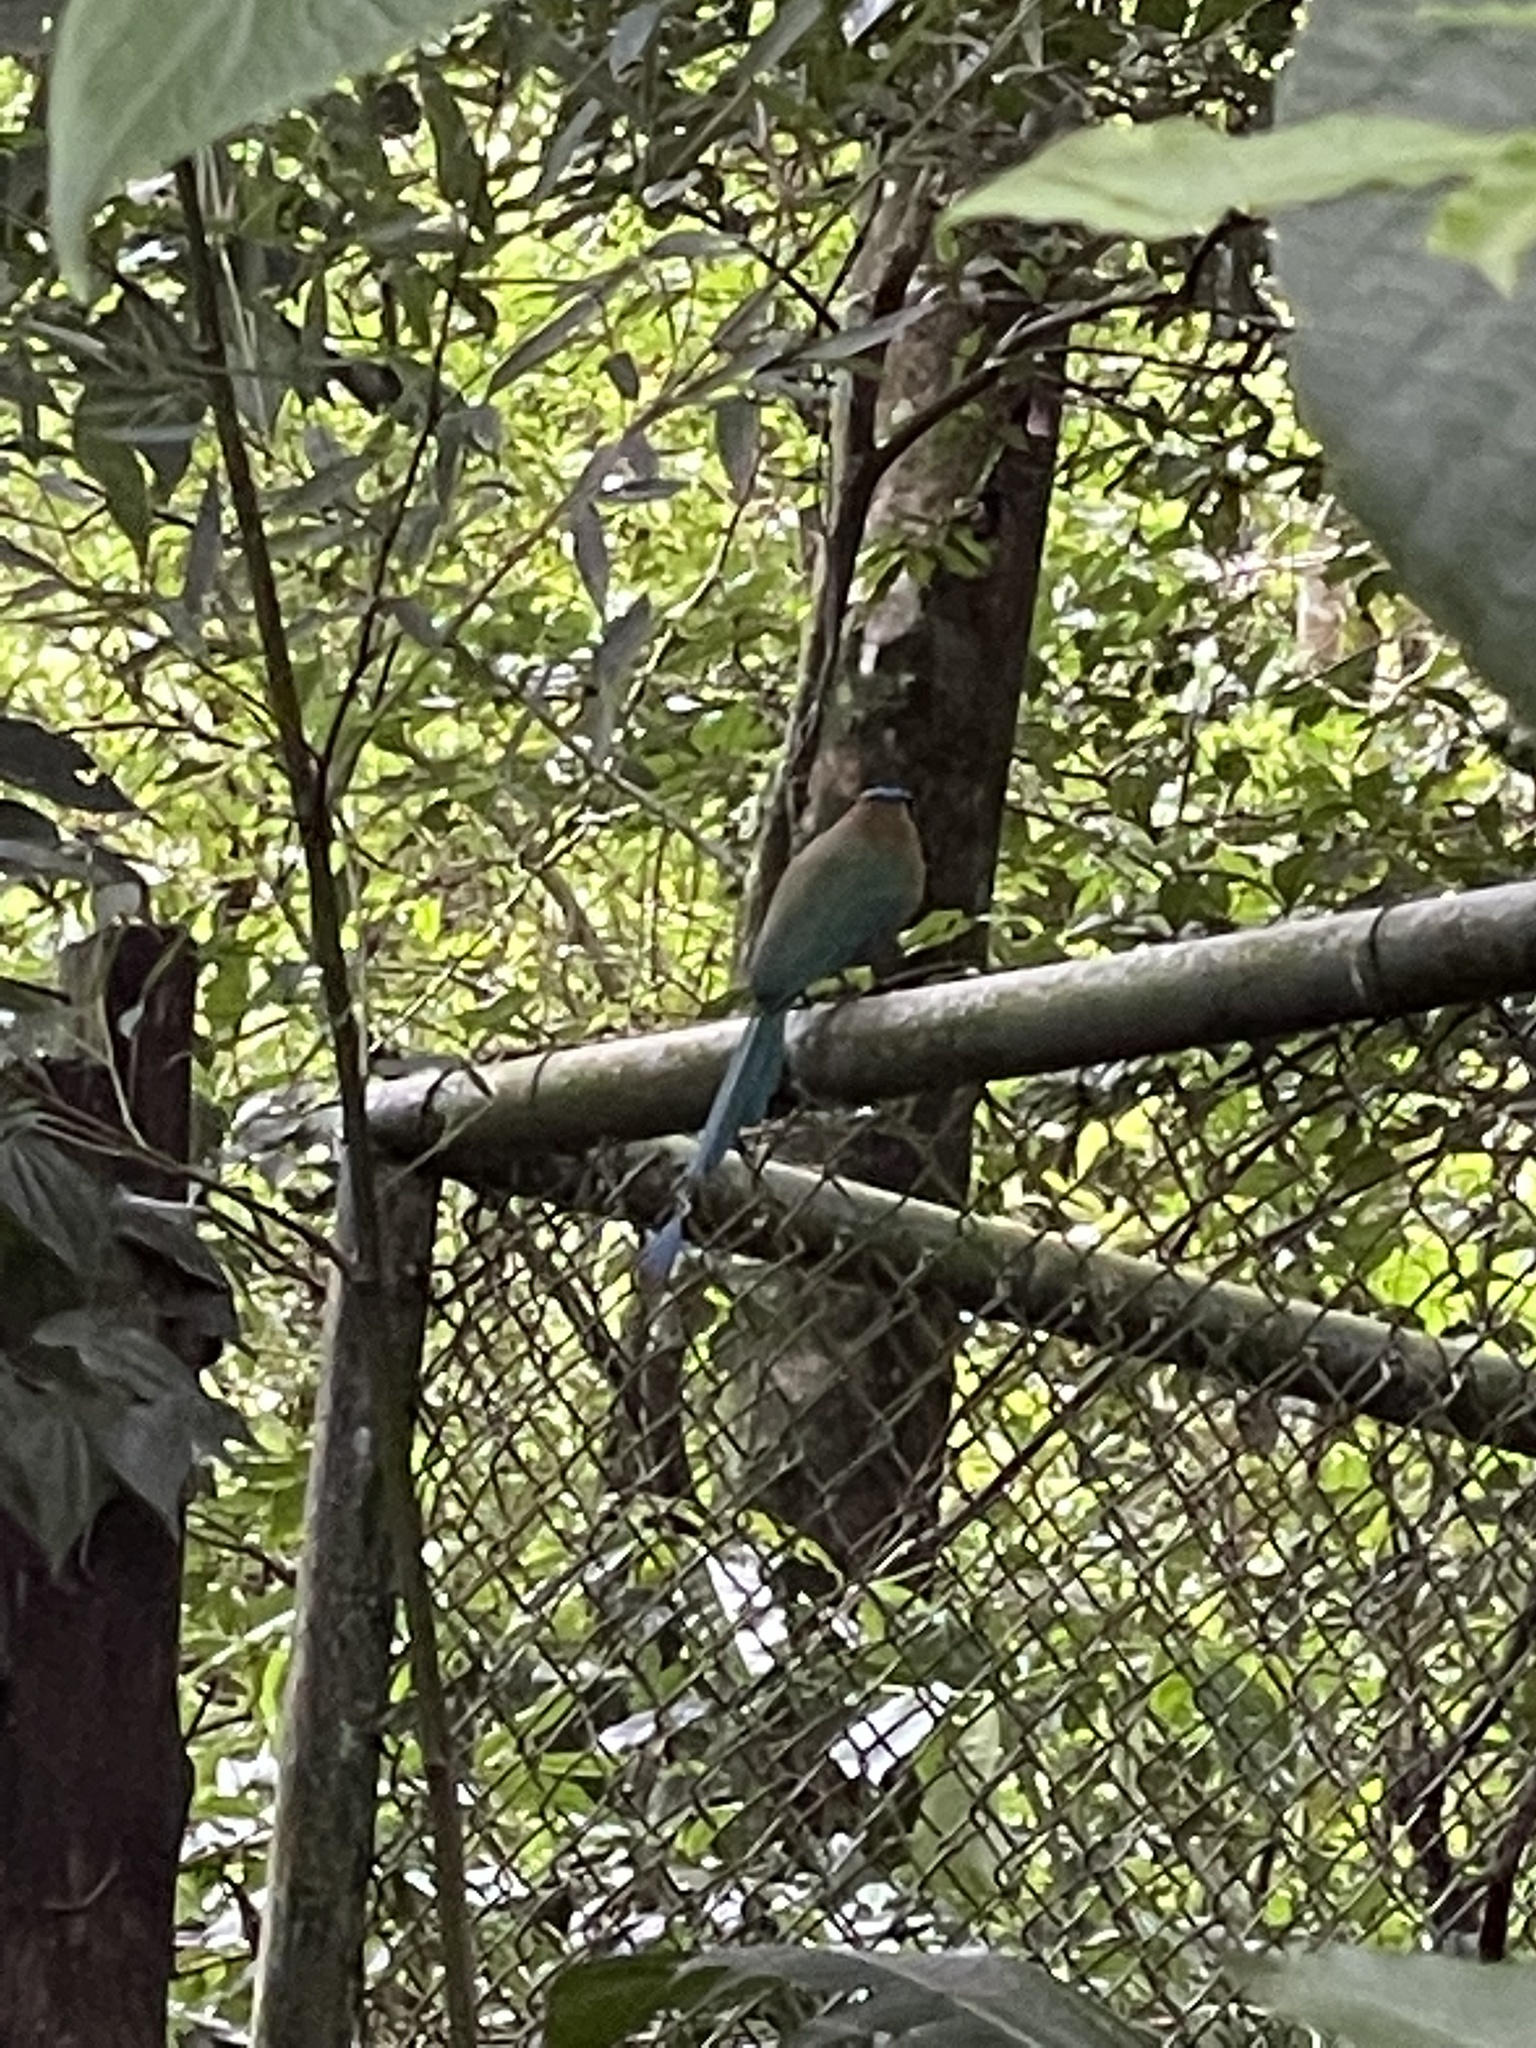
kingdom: Animalia
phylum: Chordata
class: Aves
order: Coraciiformes
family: Momotidae
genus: Momotus
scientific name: Momotus lessonii
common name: Lesson's motmot
